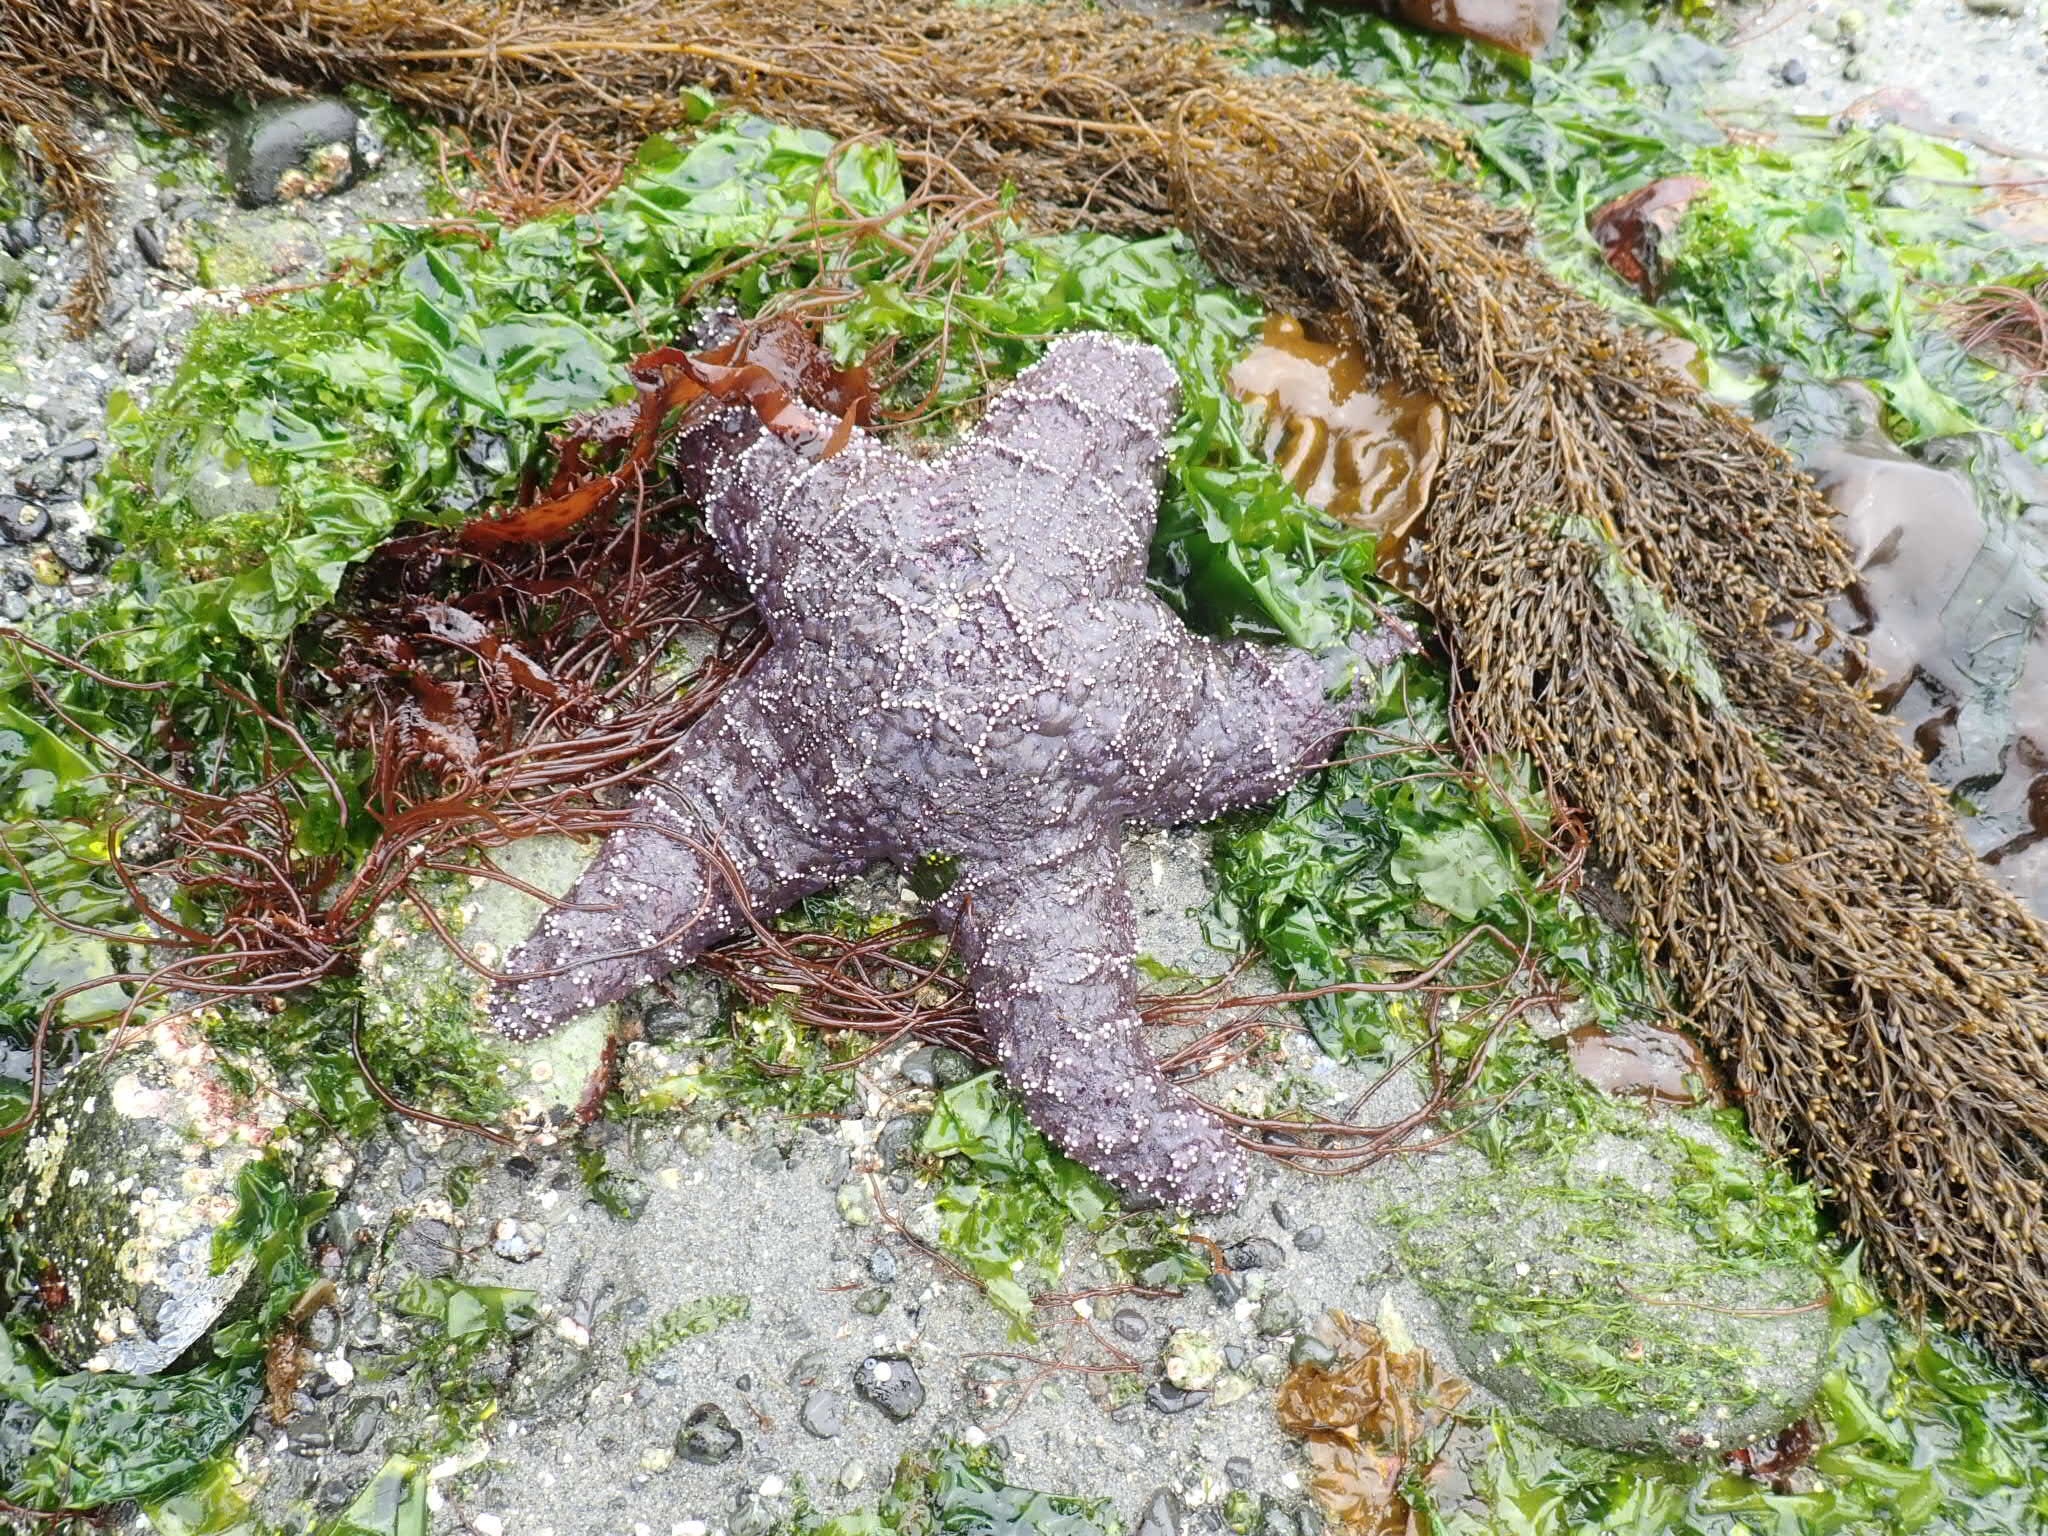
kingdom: Animalia
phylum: Echinodermata
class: Asteroidea
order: Forcipulatida
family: Asteriidae
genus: Pisaster
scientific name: Pisaster ochraceus
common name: Ochre stars
